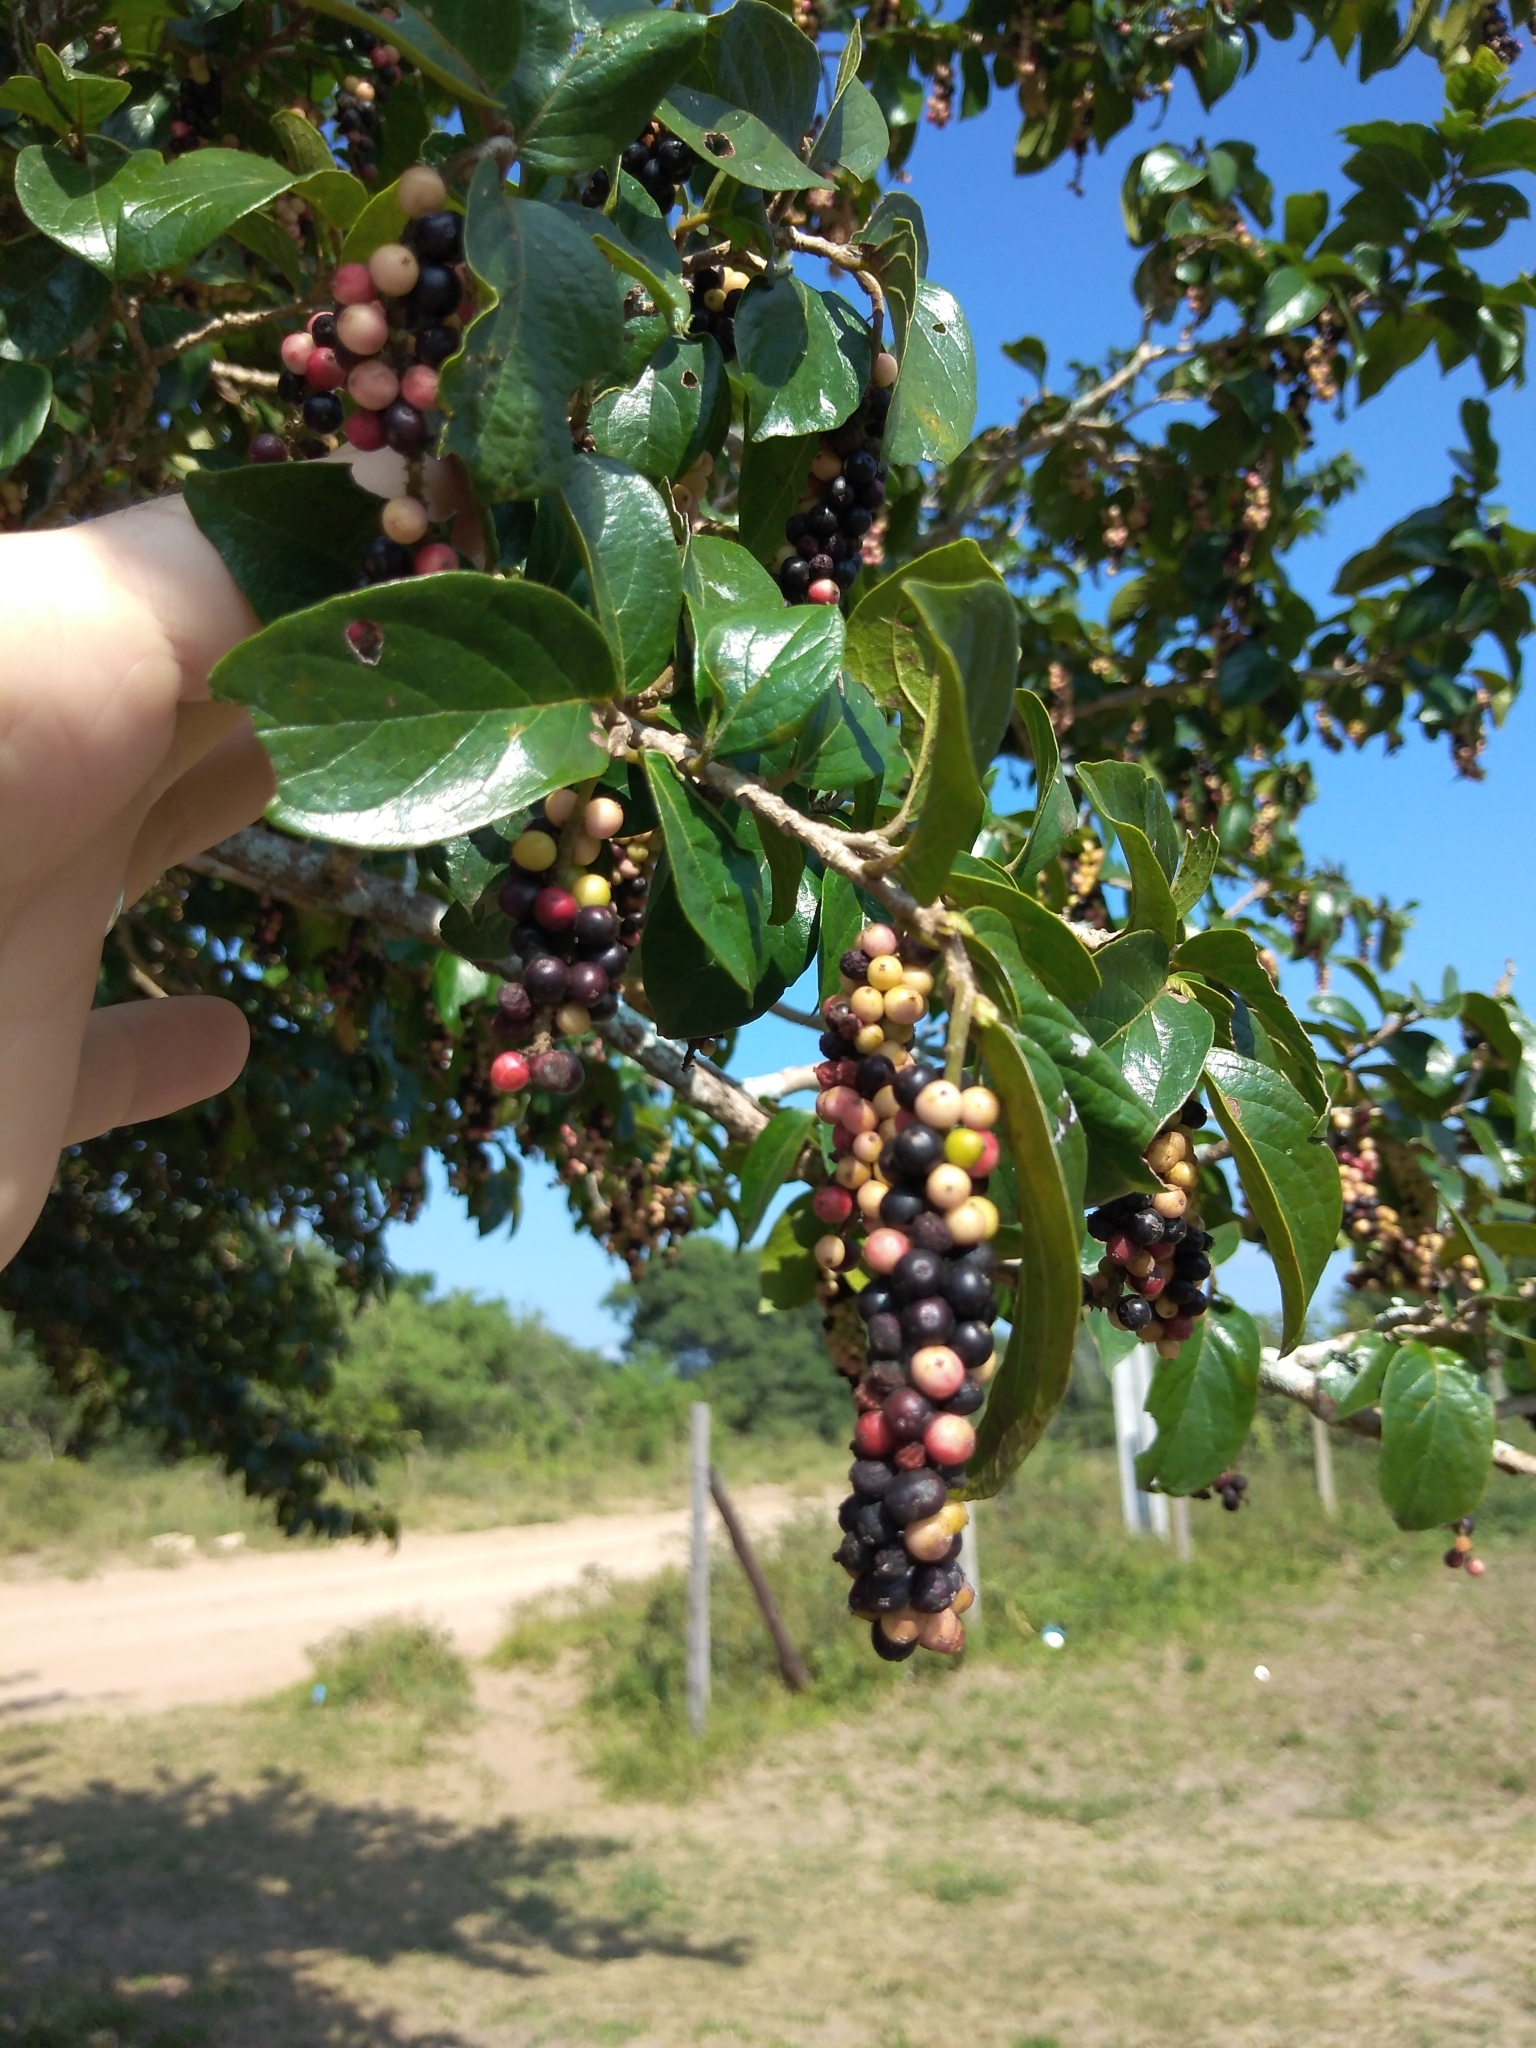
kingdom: Plantae
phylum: Tracheophyta
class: Magnoliopsida
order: Malpighiales
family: Phyllanthaceae
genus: Antidesma
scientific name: Antidesma venosum
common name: Tassel-berry
